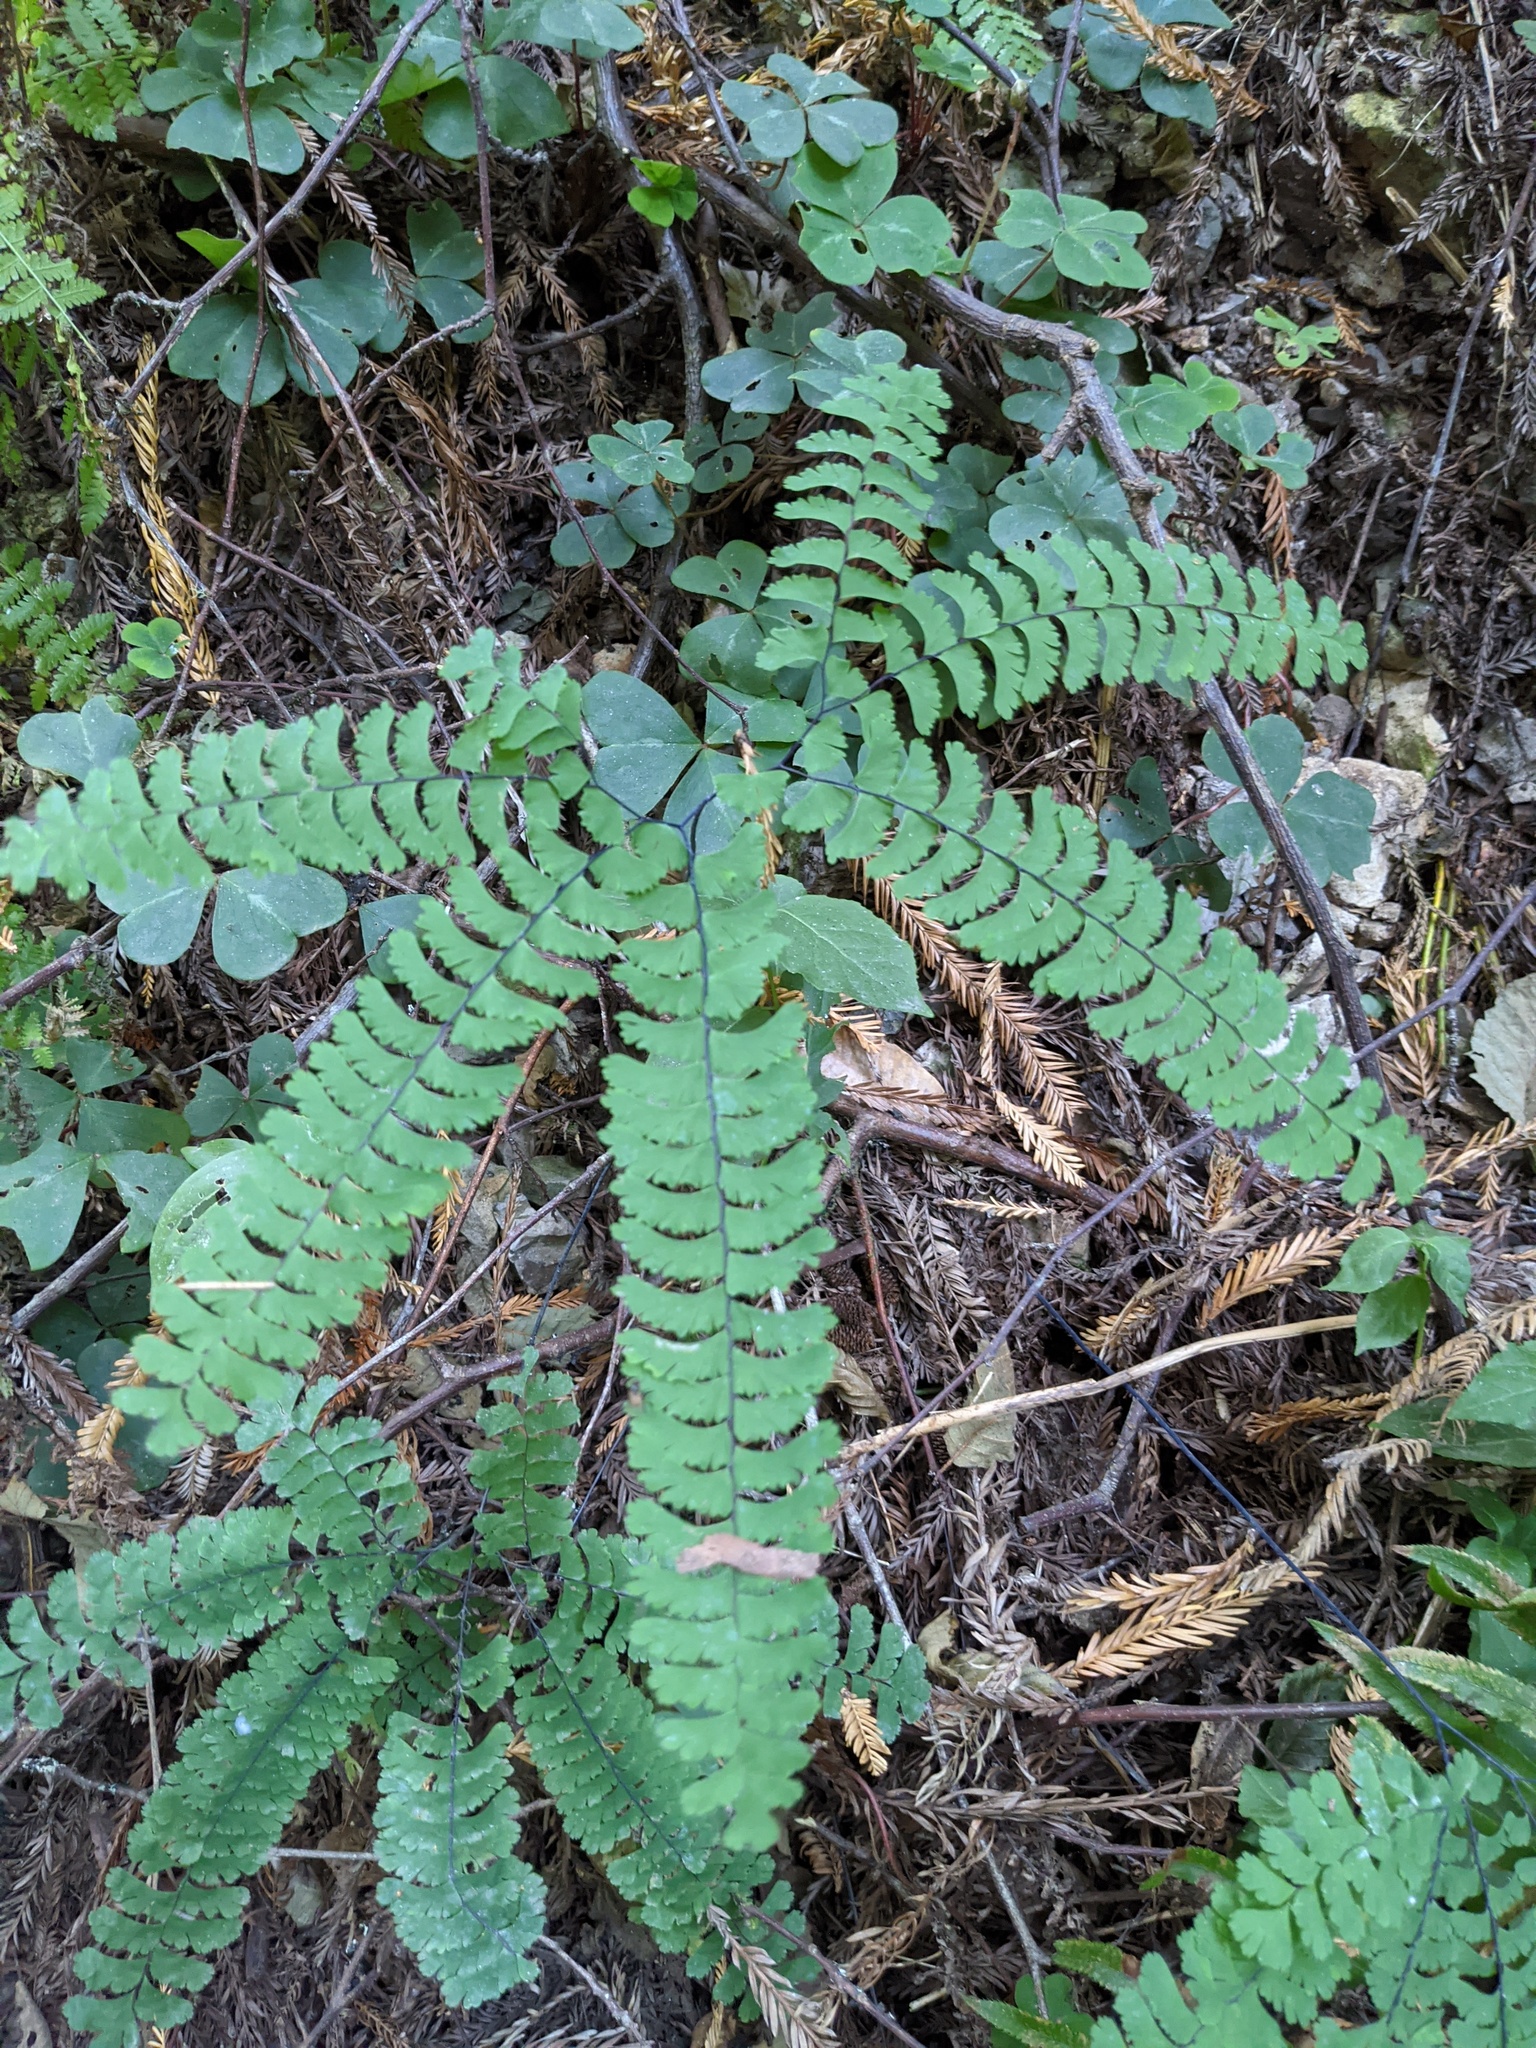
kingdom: Plantae
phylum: Tracheophyta
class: Polypodiopsida
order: Polypodiales
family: Pteridaceae
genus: Adiantum
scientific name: Adiantum aleuticum
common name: Aleutian maidenhair fern
